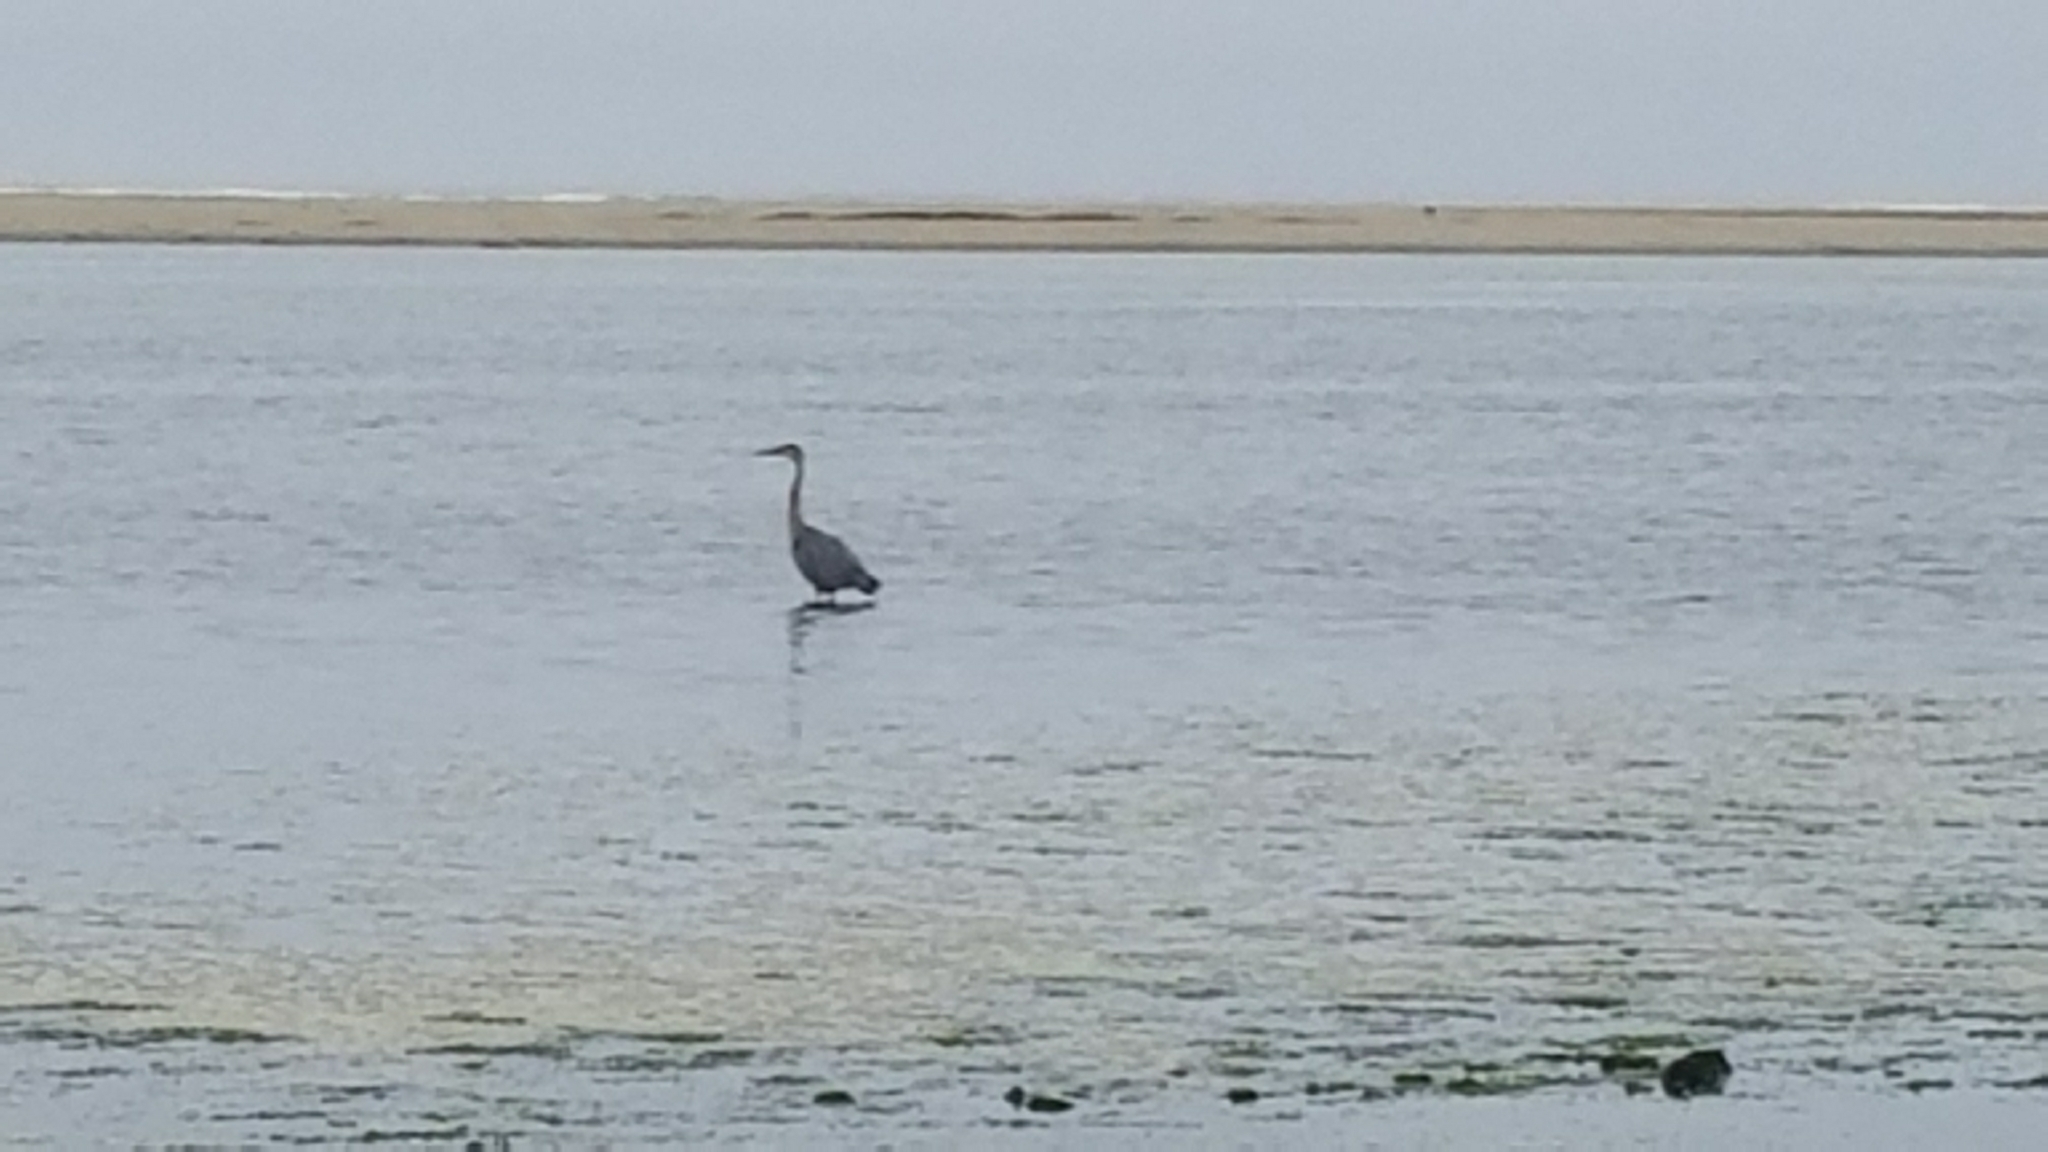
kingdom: Animalia
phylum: Chordata
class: Aves
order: Pelecaniformes
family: Ardeidae
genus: Ardea
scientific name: Ardea herodias
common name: Great blue heron
